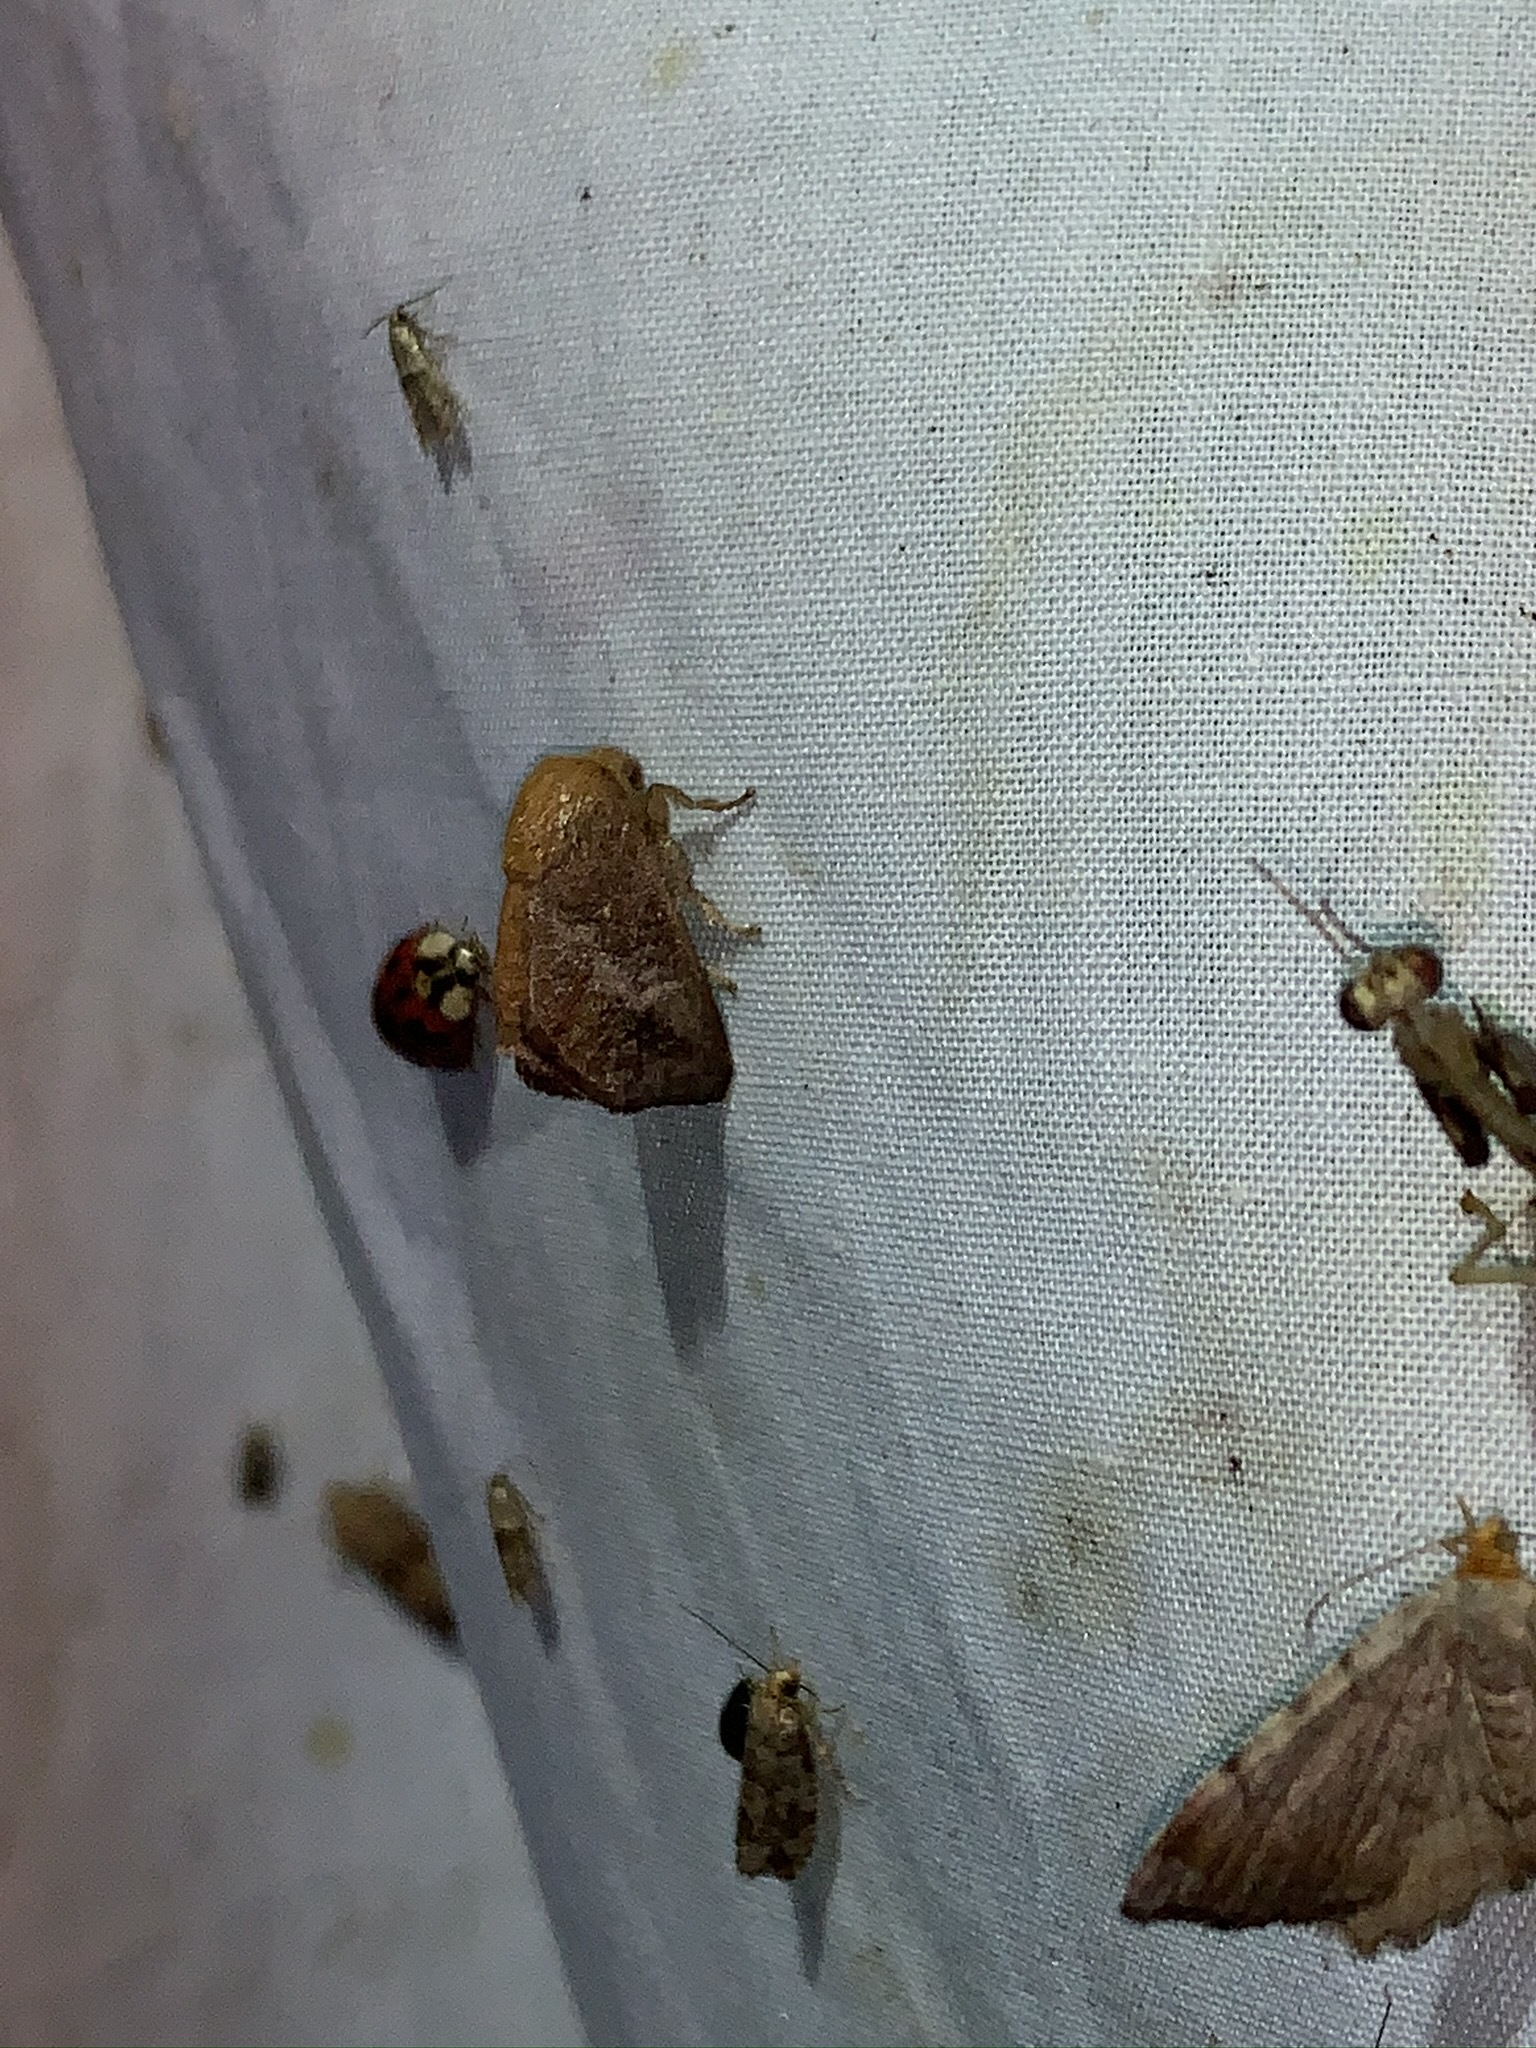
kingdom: Animalia
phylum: Arthropoda
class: Insecta
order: Lepidoptera
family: Limacodidae
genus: Isa
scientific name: Isa textula
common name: Crowned slug moth
